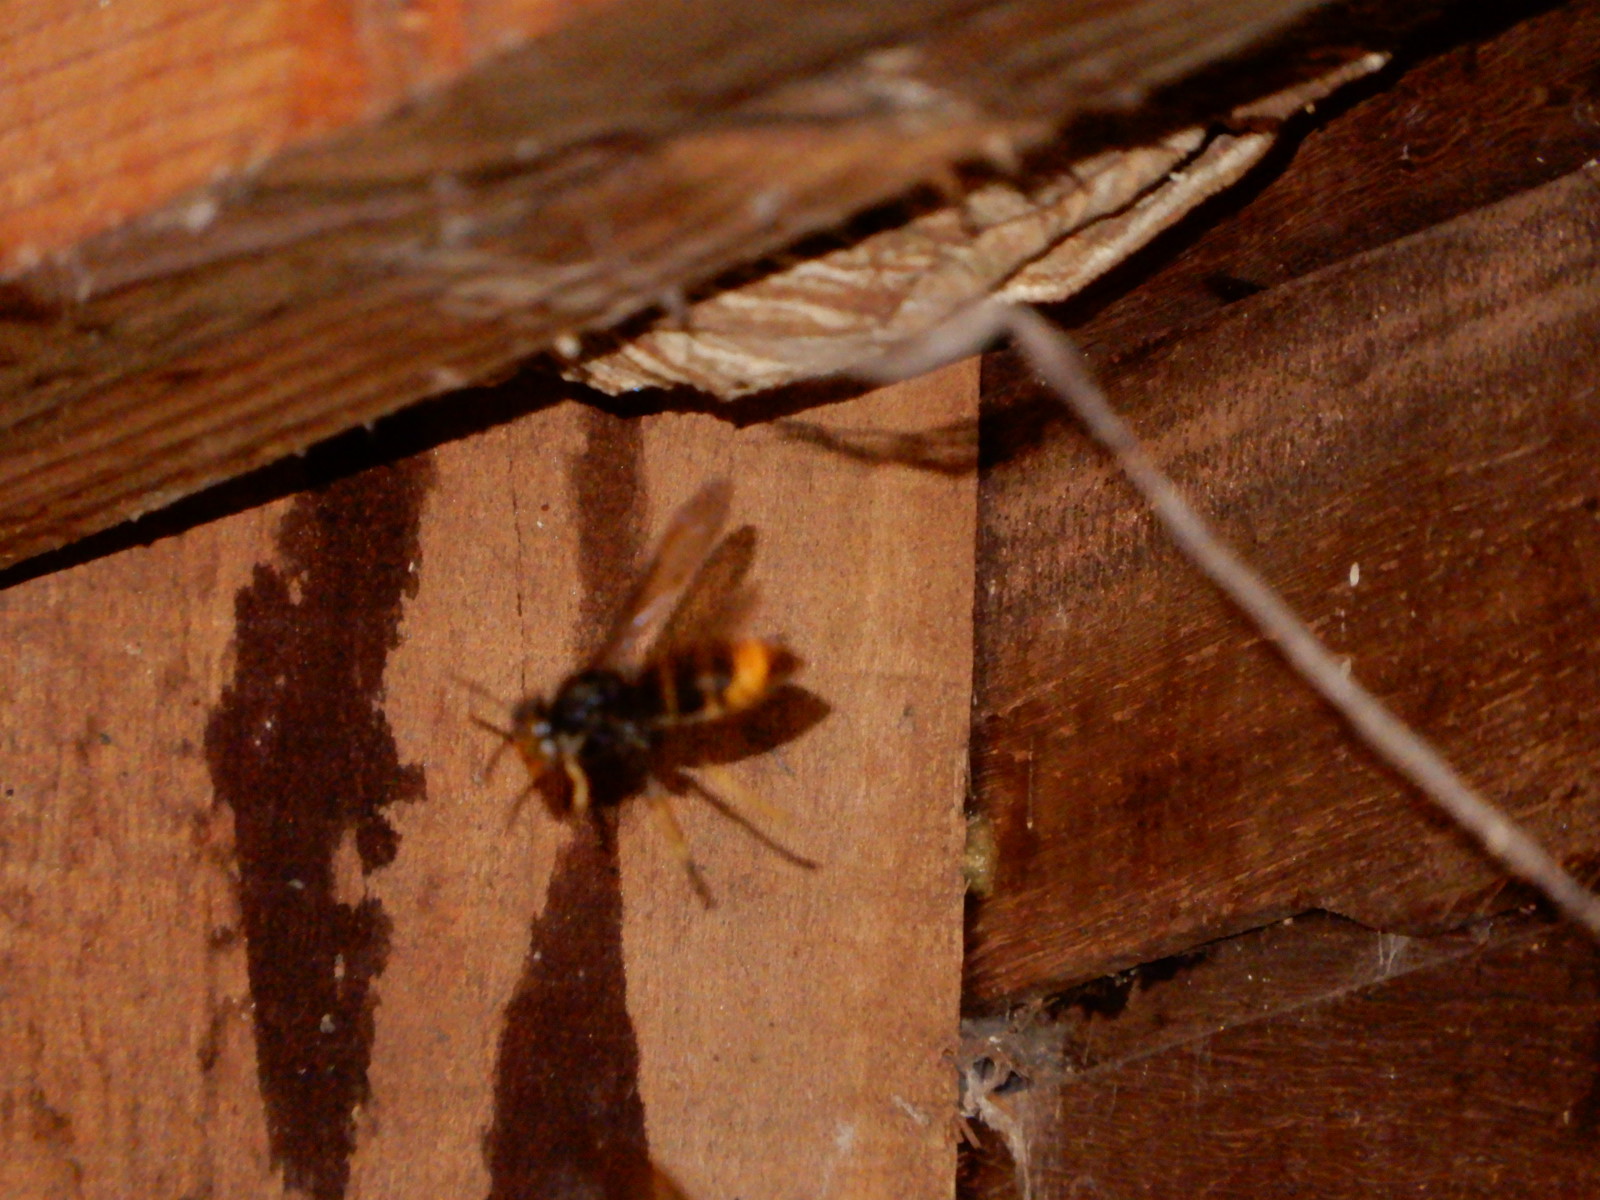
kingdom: Animalia
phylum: Arthropoda
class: Insecta
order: Hymenoptera
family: Vespidae
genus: Vespa
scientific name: Vespa velutina
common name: Asian hornet
